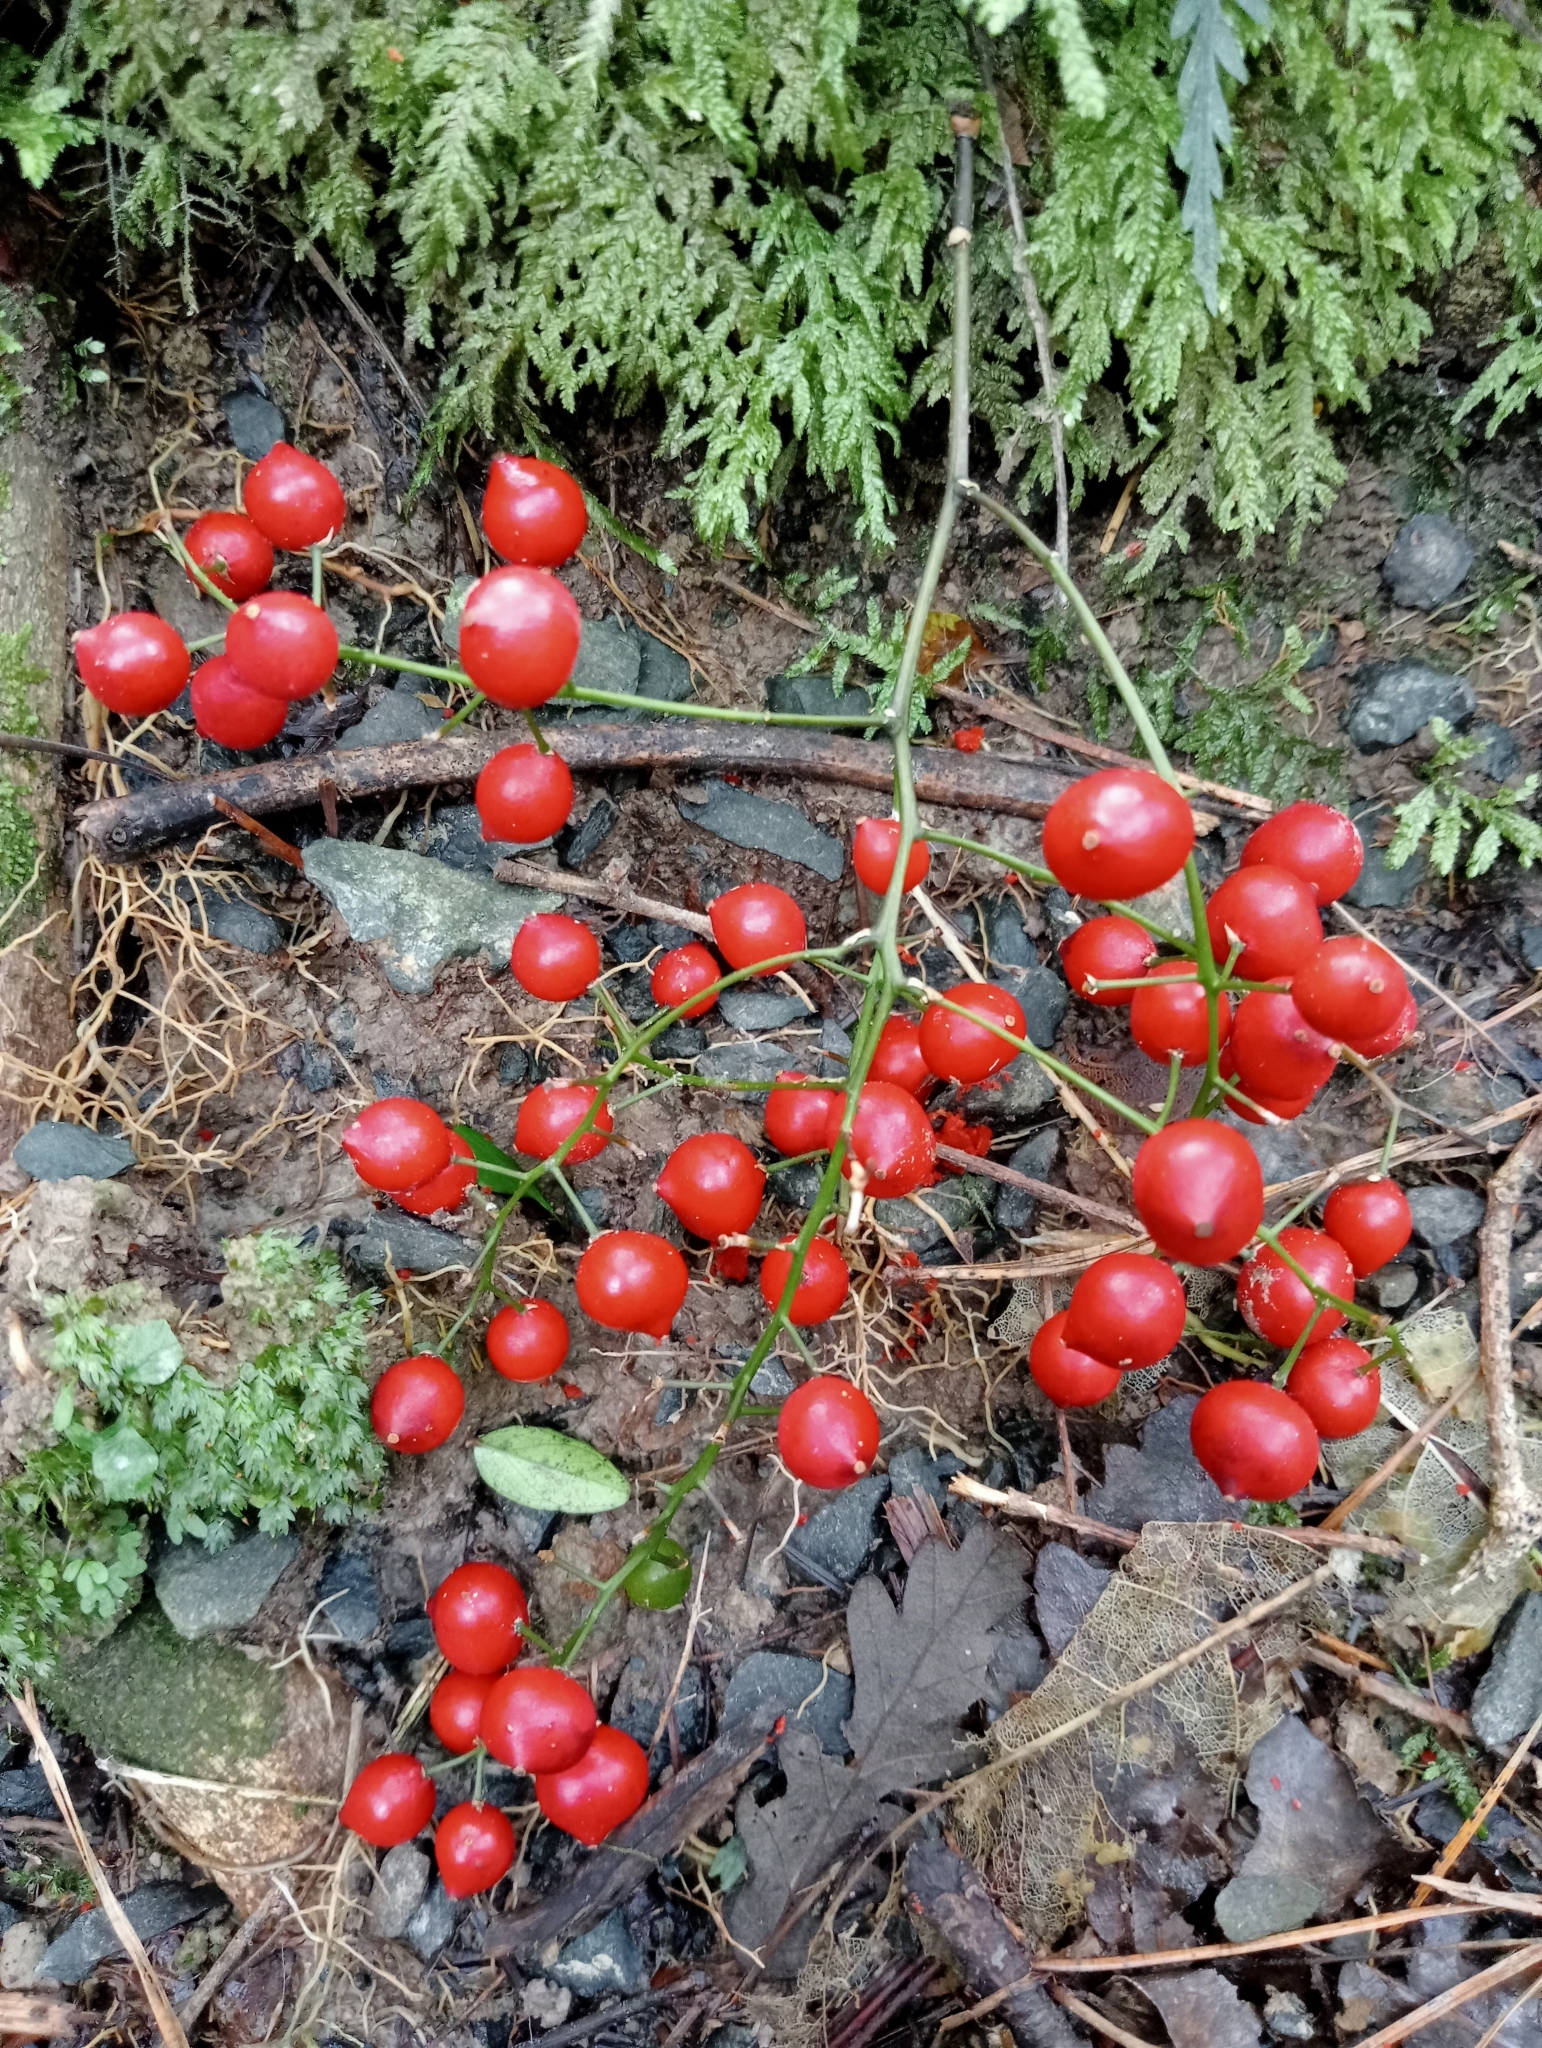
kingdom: Plantae
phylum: Tracheophyta
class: Liliopsida
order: Liliales
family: Ripogonaceae
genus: Ripogonum
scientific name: Ripogonum scandens
